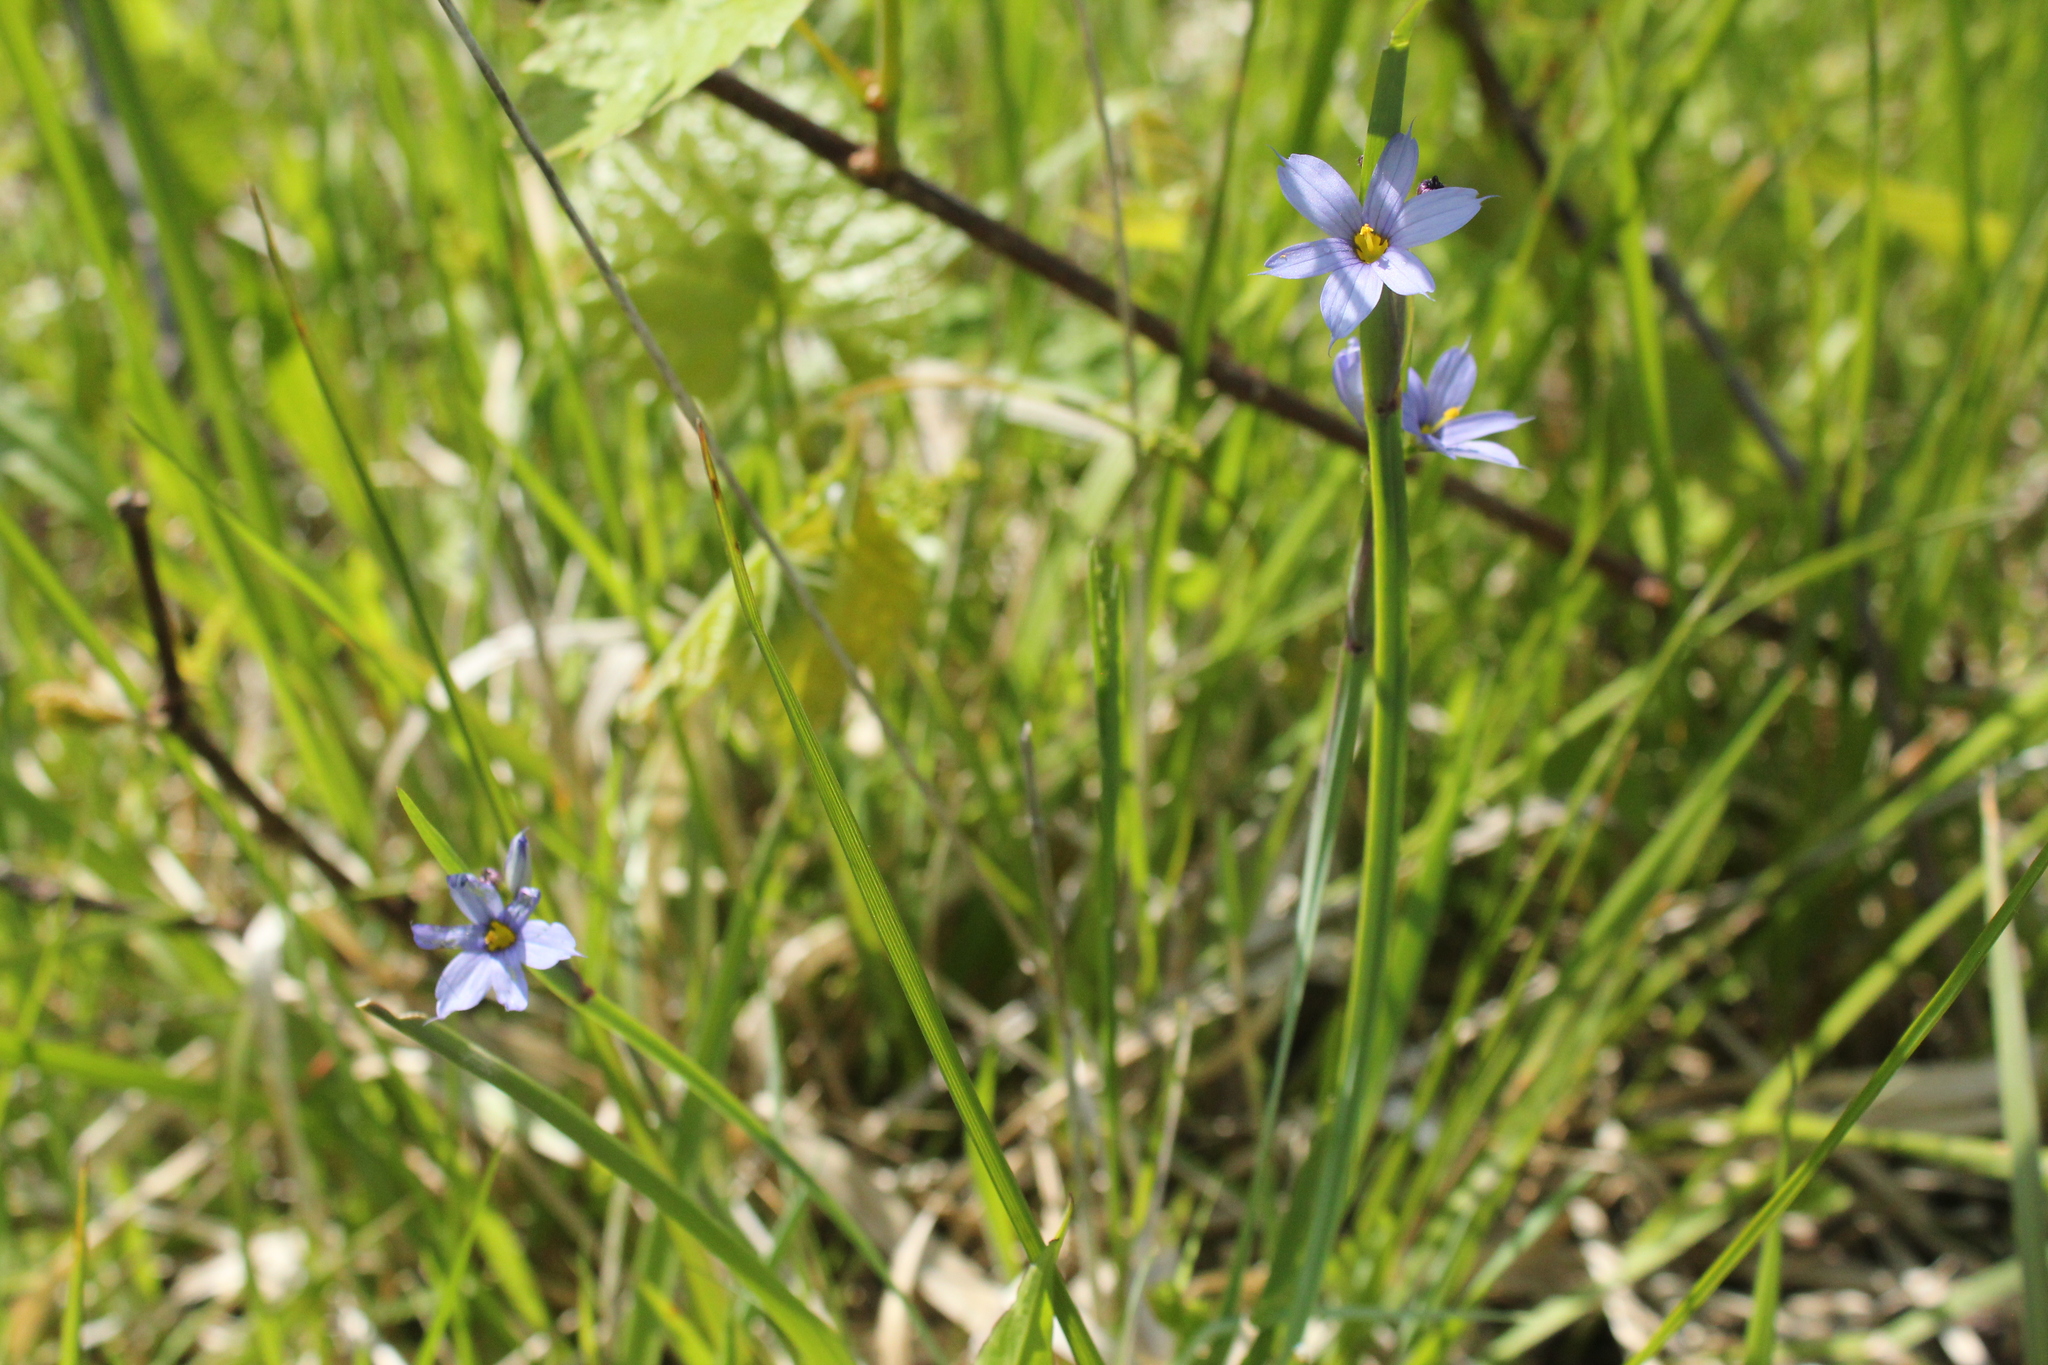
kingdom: Plantae
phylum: Tracheophyta
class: Liliopsida
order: Asparagales
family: Iridaceae
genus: Sisyrinchium
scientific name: Sisyrinchium montanum
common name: American blue-eyed-grass
